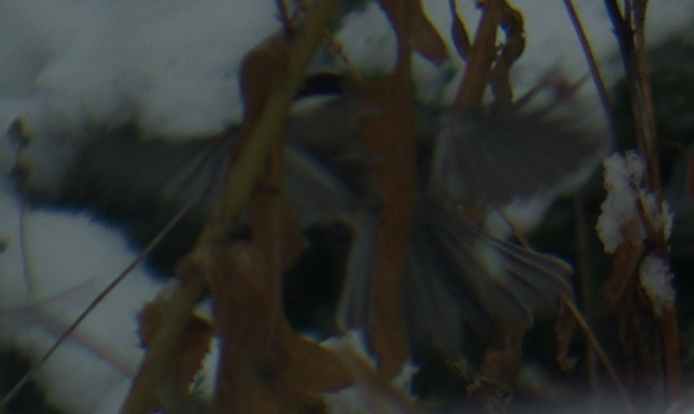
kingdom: Animalia
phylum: Chordata
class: Aves
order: Passeriformes
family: Paridae
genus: Poecile
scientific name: Poecile atricapillus
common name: Black-capped chickadee
